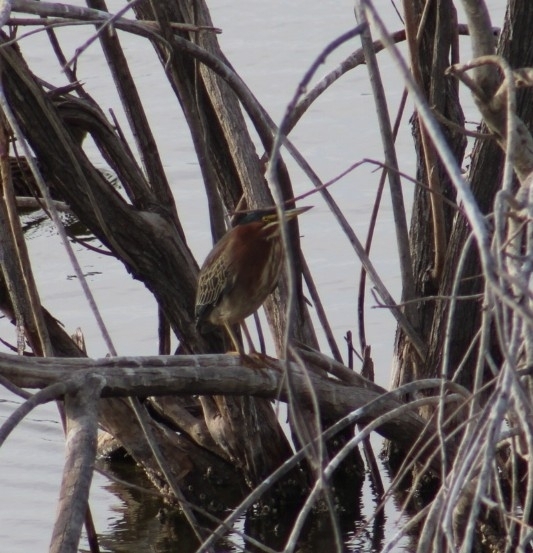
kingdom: Animalia
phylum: Chordata
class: Aves
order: Pelecaniformes
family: Ardeidae
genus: Butorides
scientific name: Butorides virescens
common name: Green heron
